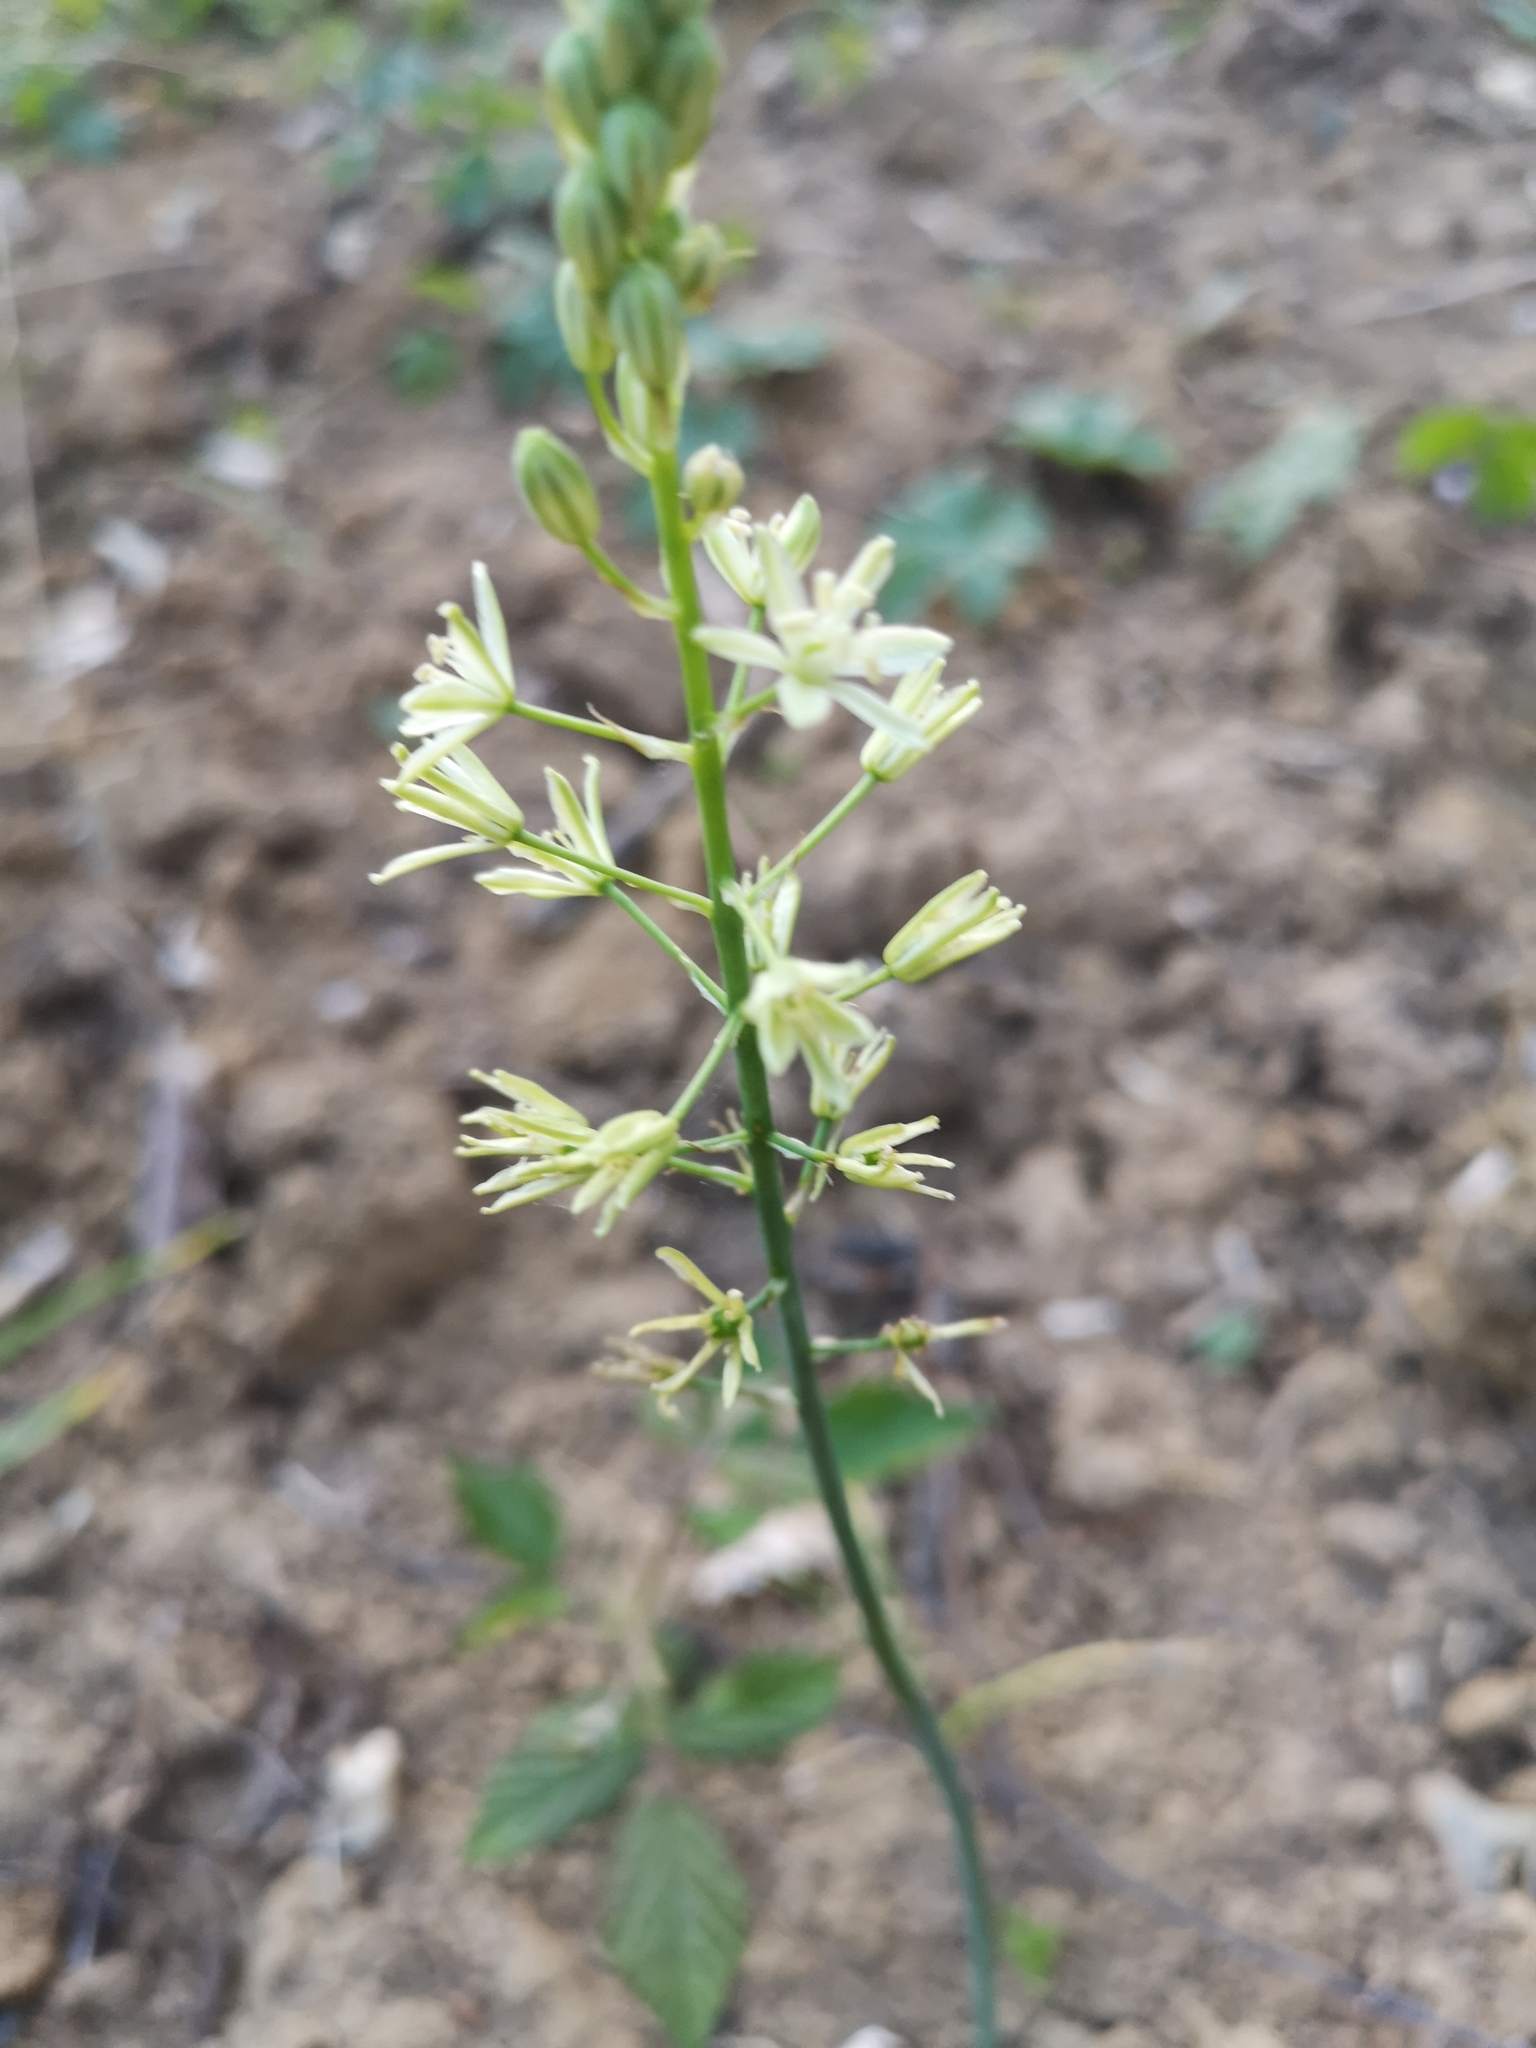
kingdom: Plantae
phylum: Tracheophyta
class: Liliopsida
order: Asparagales
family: Asparagaceae
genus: Ornithogalum
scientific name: Ornithogalum pyrenaicum
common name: Spiked star-of-bethlehem
